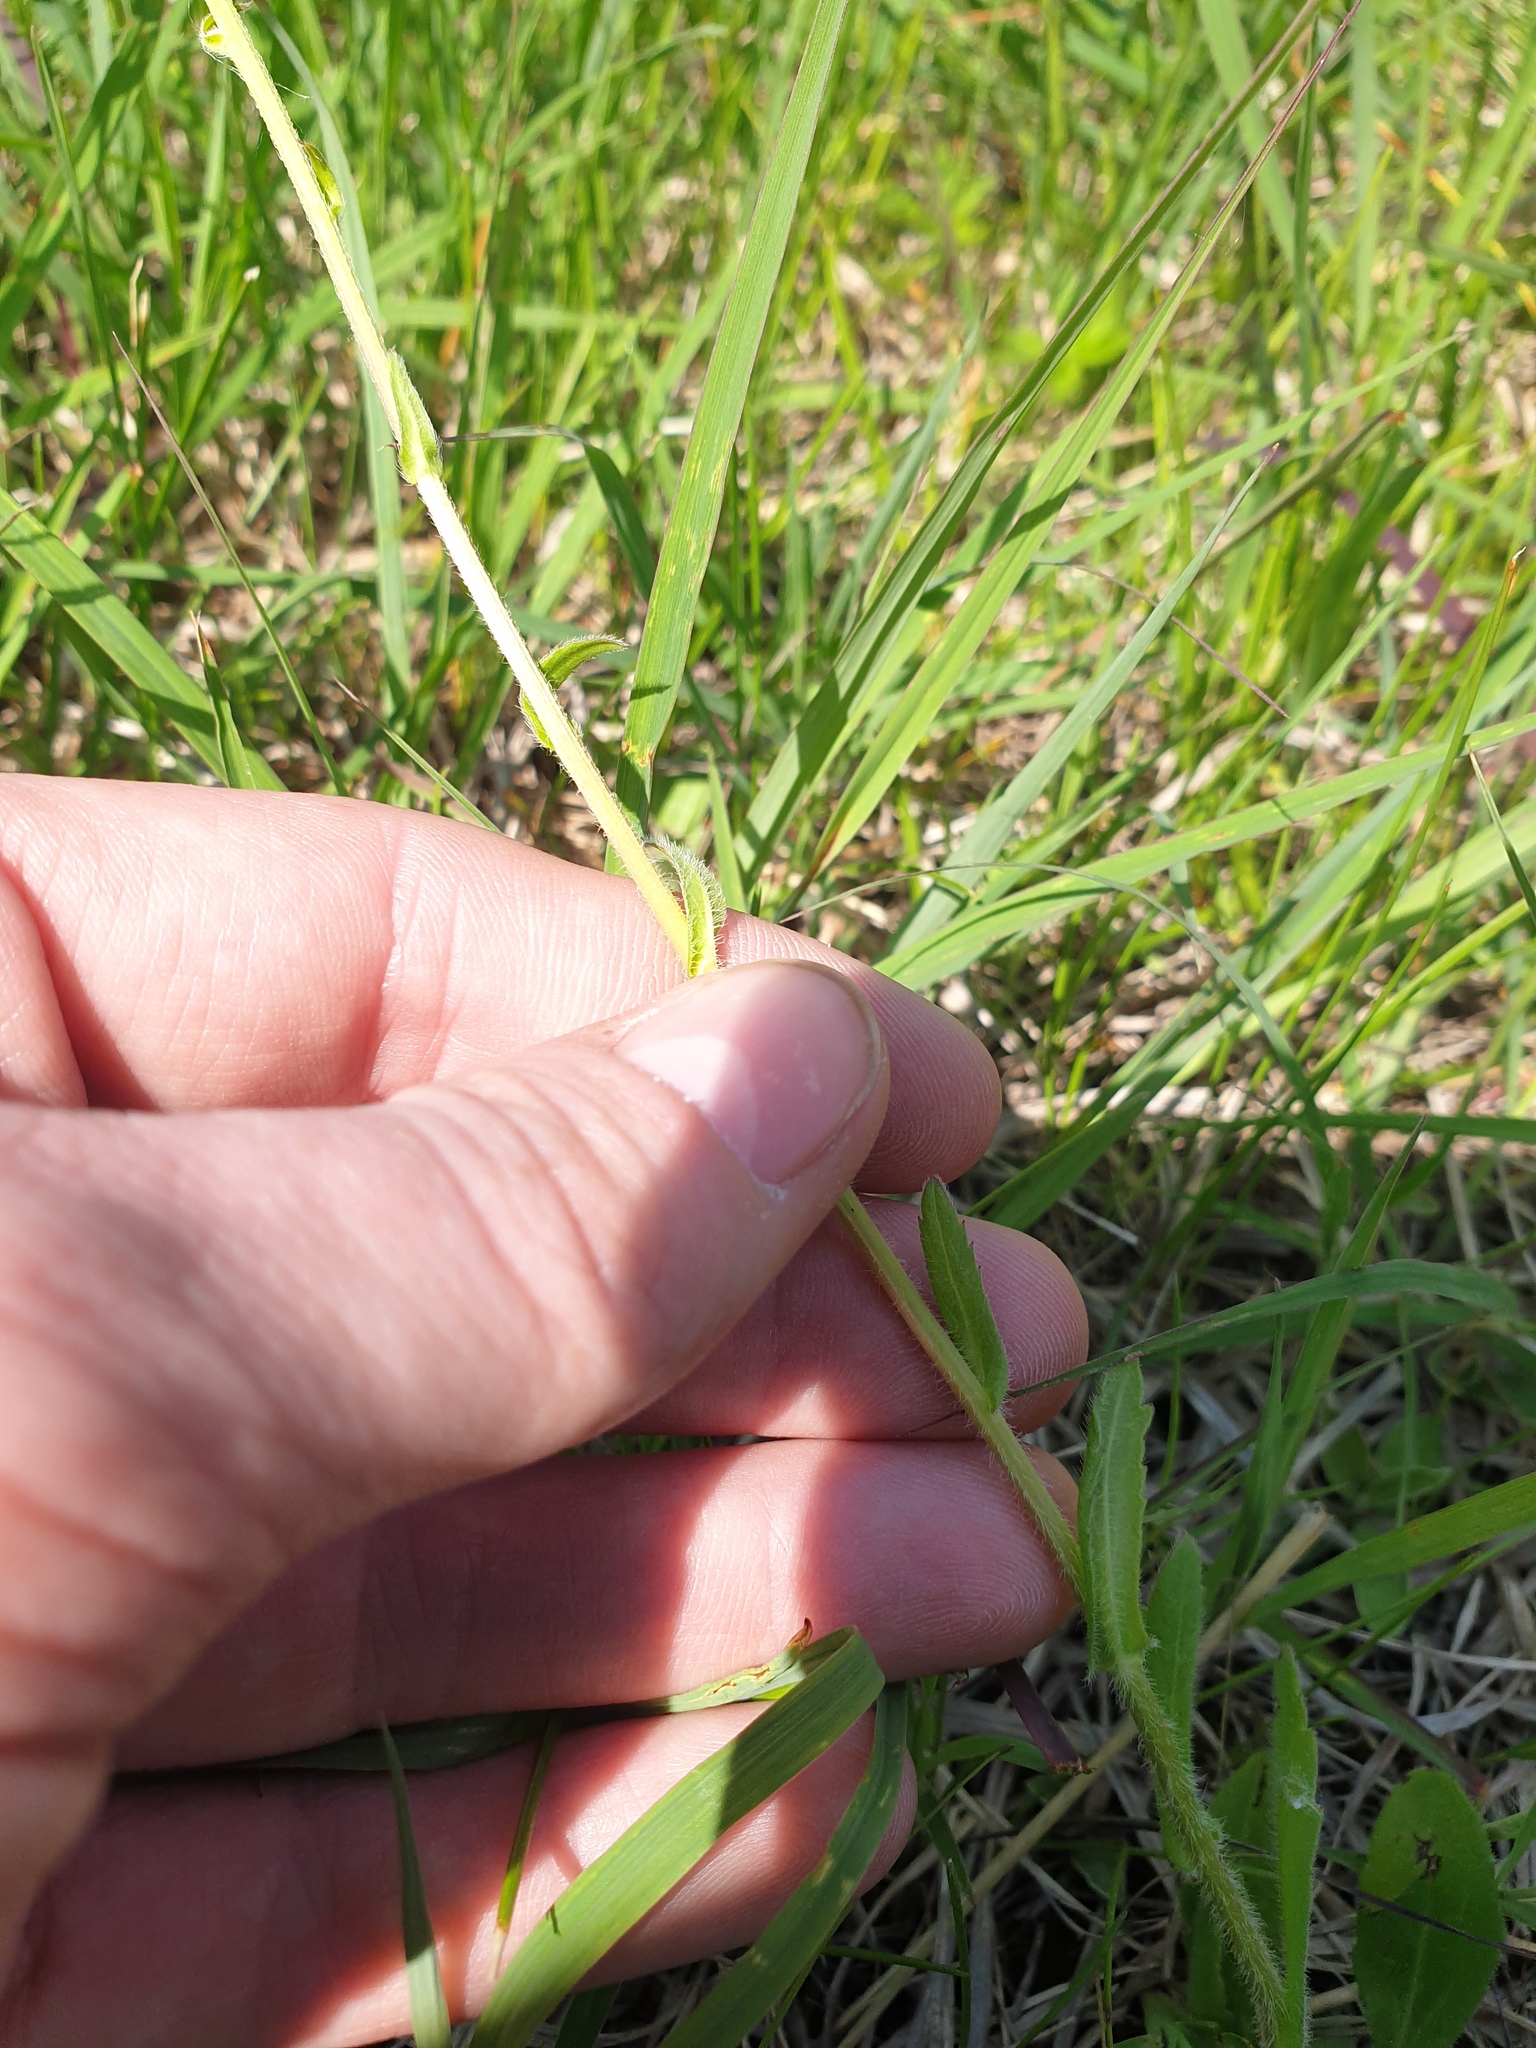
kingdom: Plantae
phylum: Tracheophyta
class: Magnoliopsida
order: Asterales
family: Asteraceae
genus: Erigeron
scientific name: Erigeron philadelphicus
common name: Robin's-plantain
